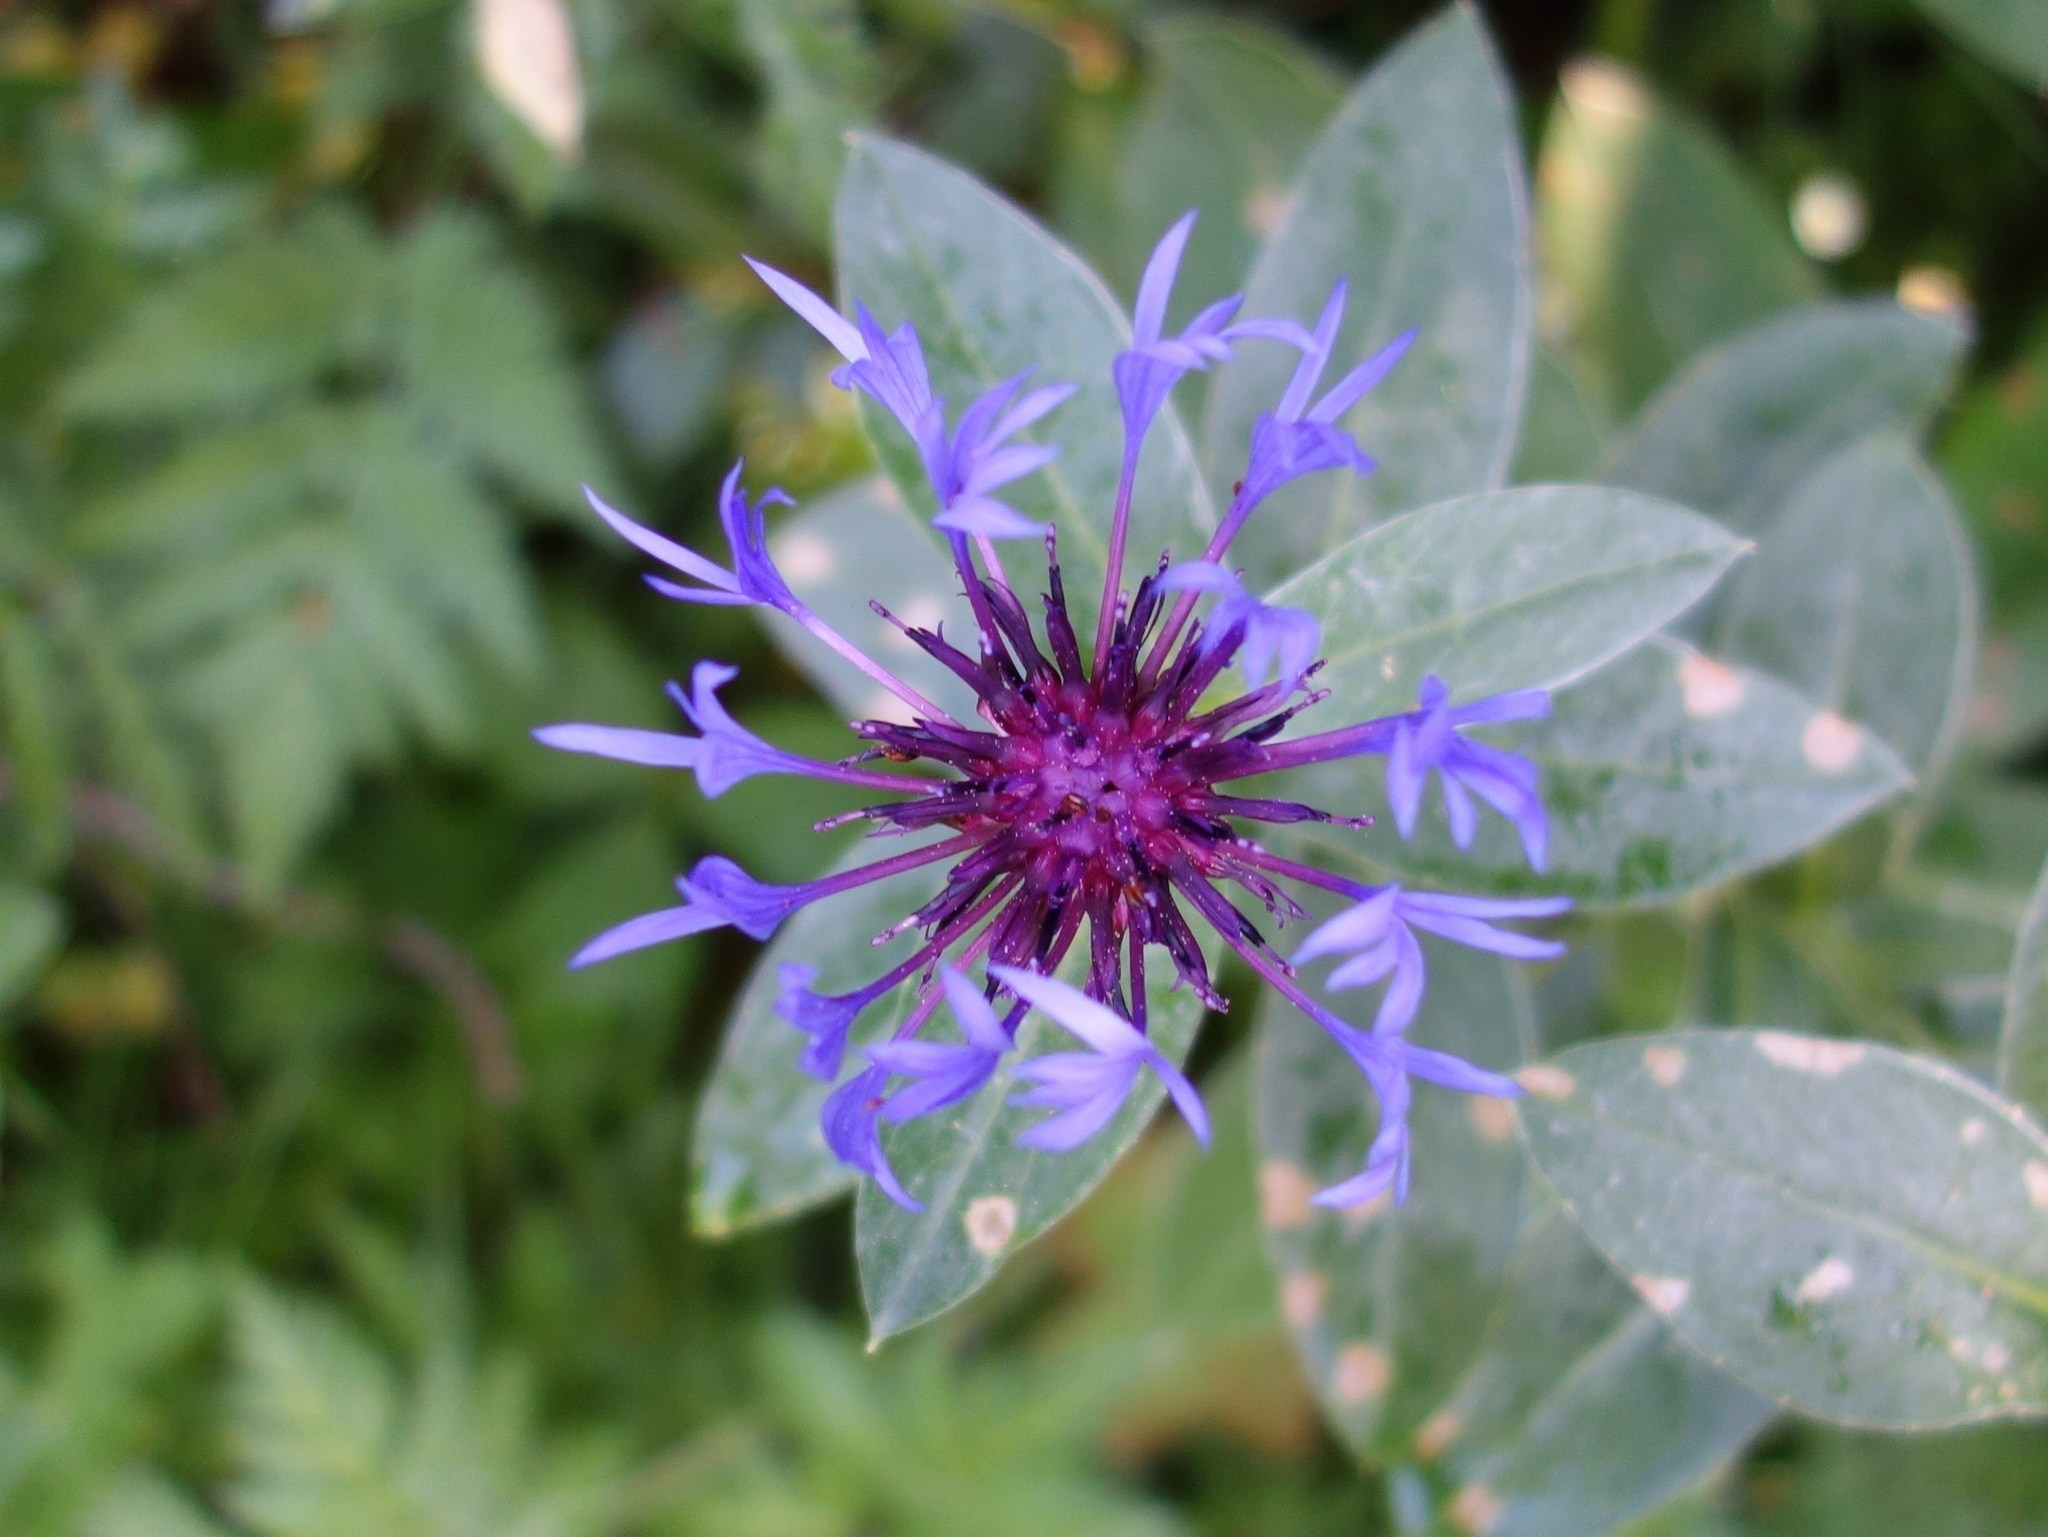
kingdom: Plantae
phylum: Tracheophyta
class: Magnoliopsida
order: Asterales
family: Asteraceae
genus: Centaurea
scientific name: Centaurea montana
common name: Perennial cornflower
